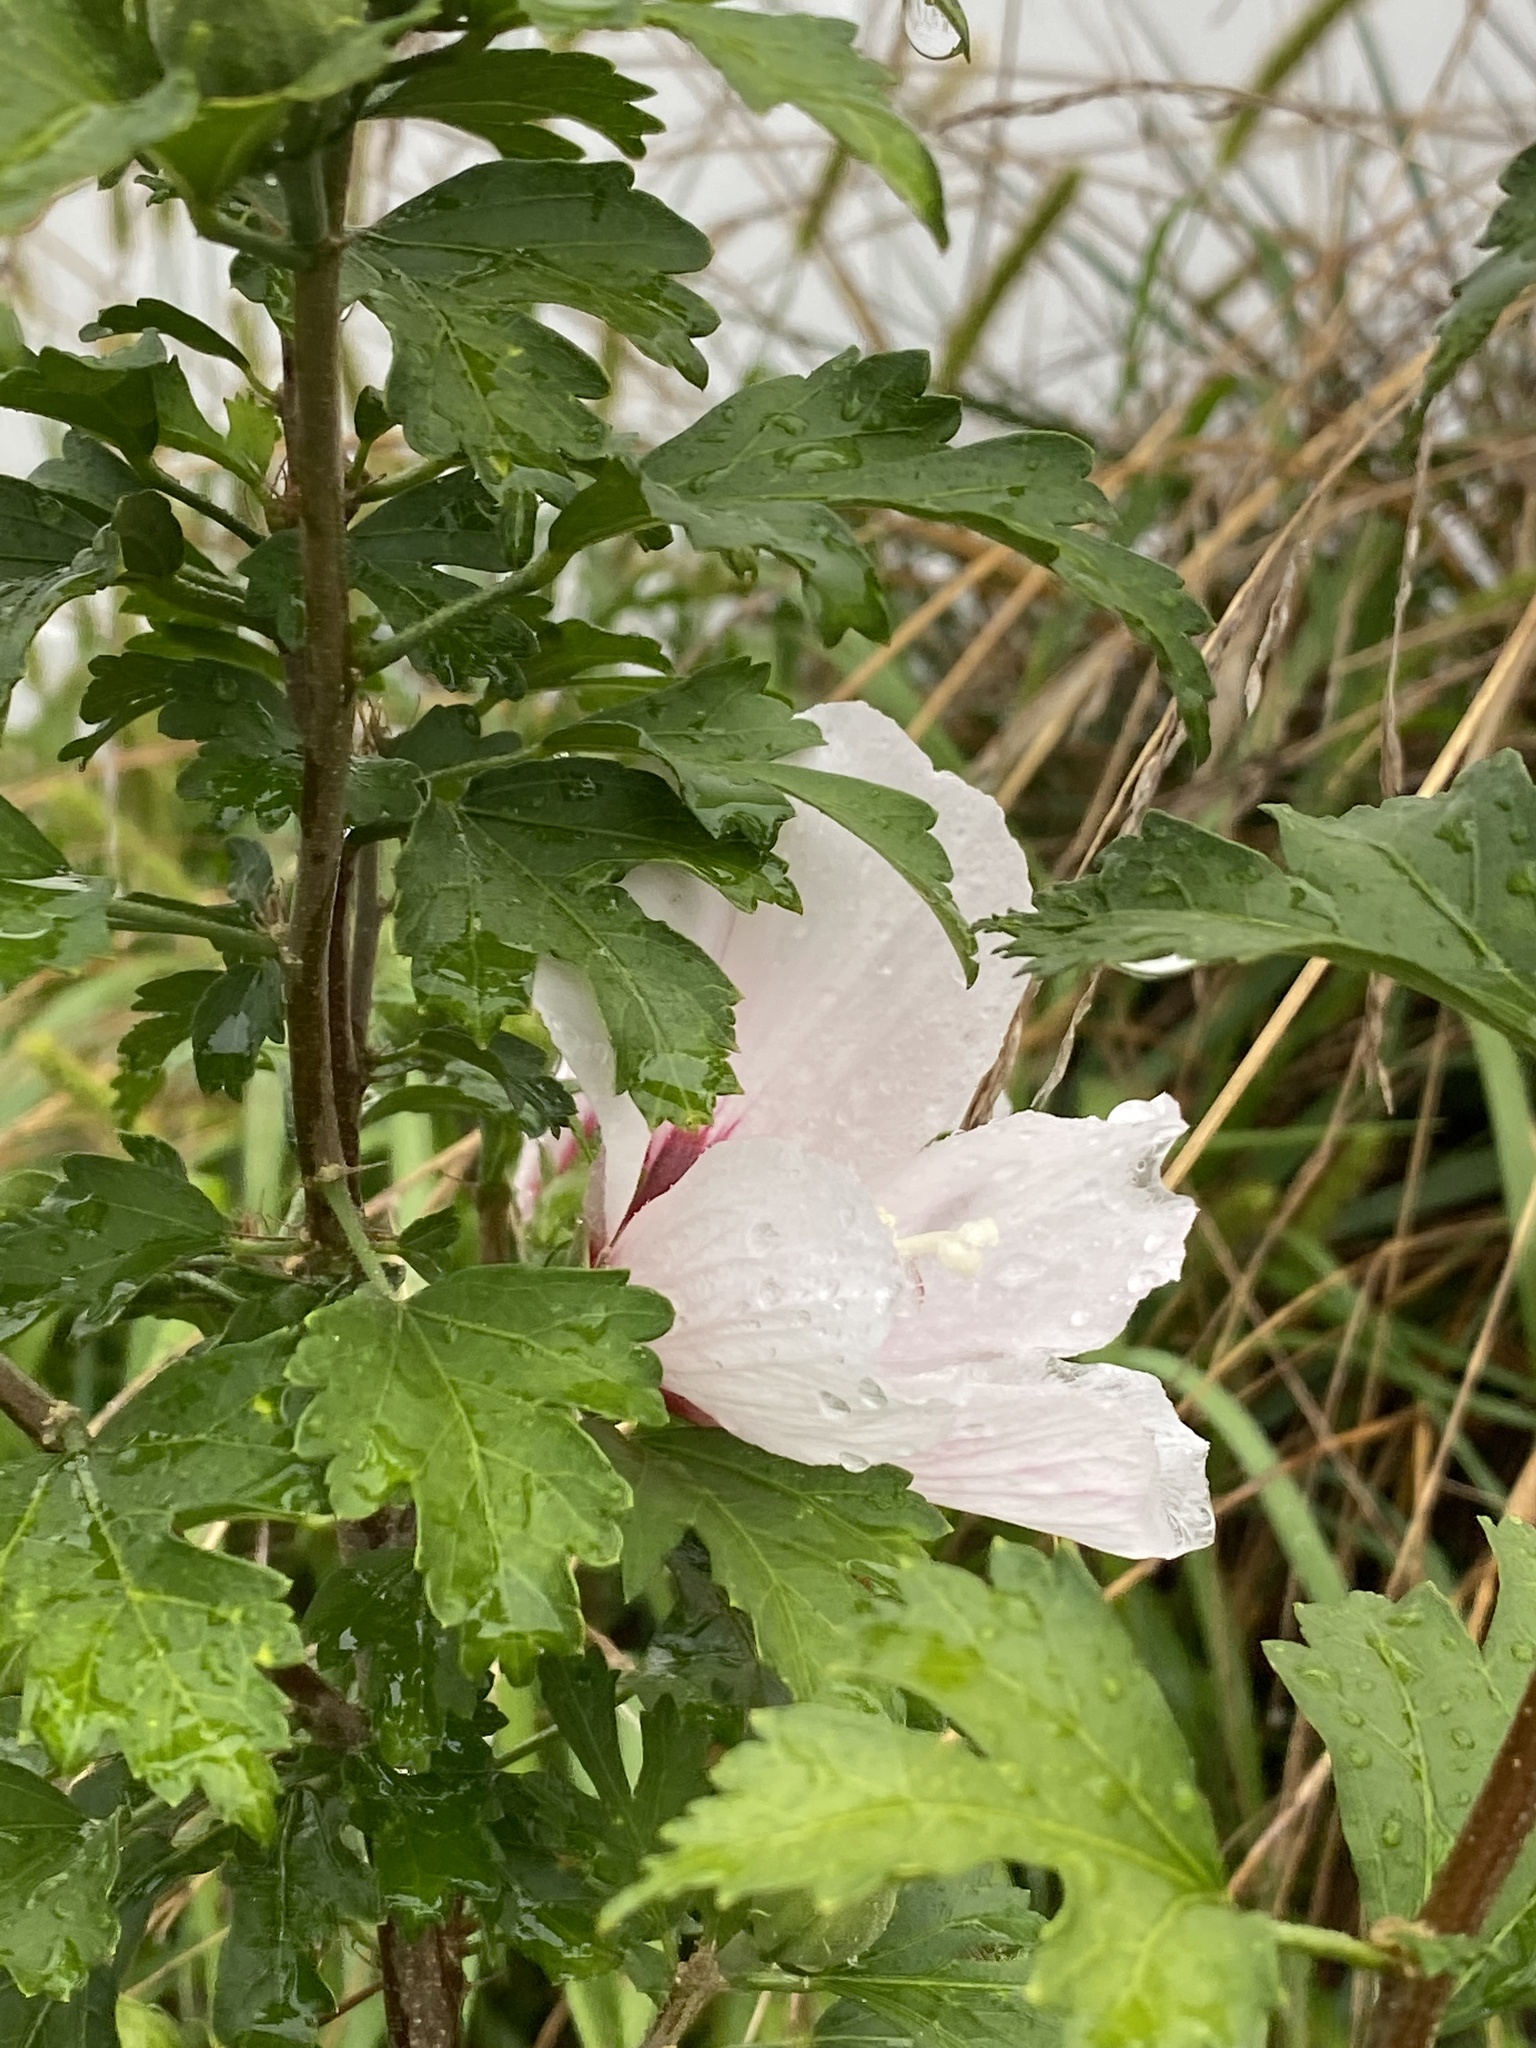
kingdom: Plantae
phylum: Tracheophyta
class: Magnoliopsida
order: Malvales
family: Malvaceae
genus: Hibiscus
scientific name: Hibiscus syriacus
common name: Syrian ketmia
